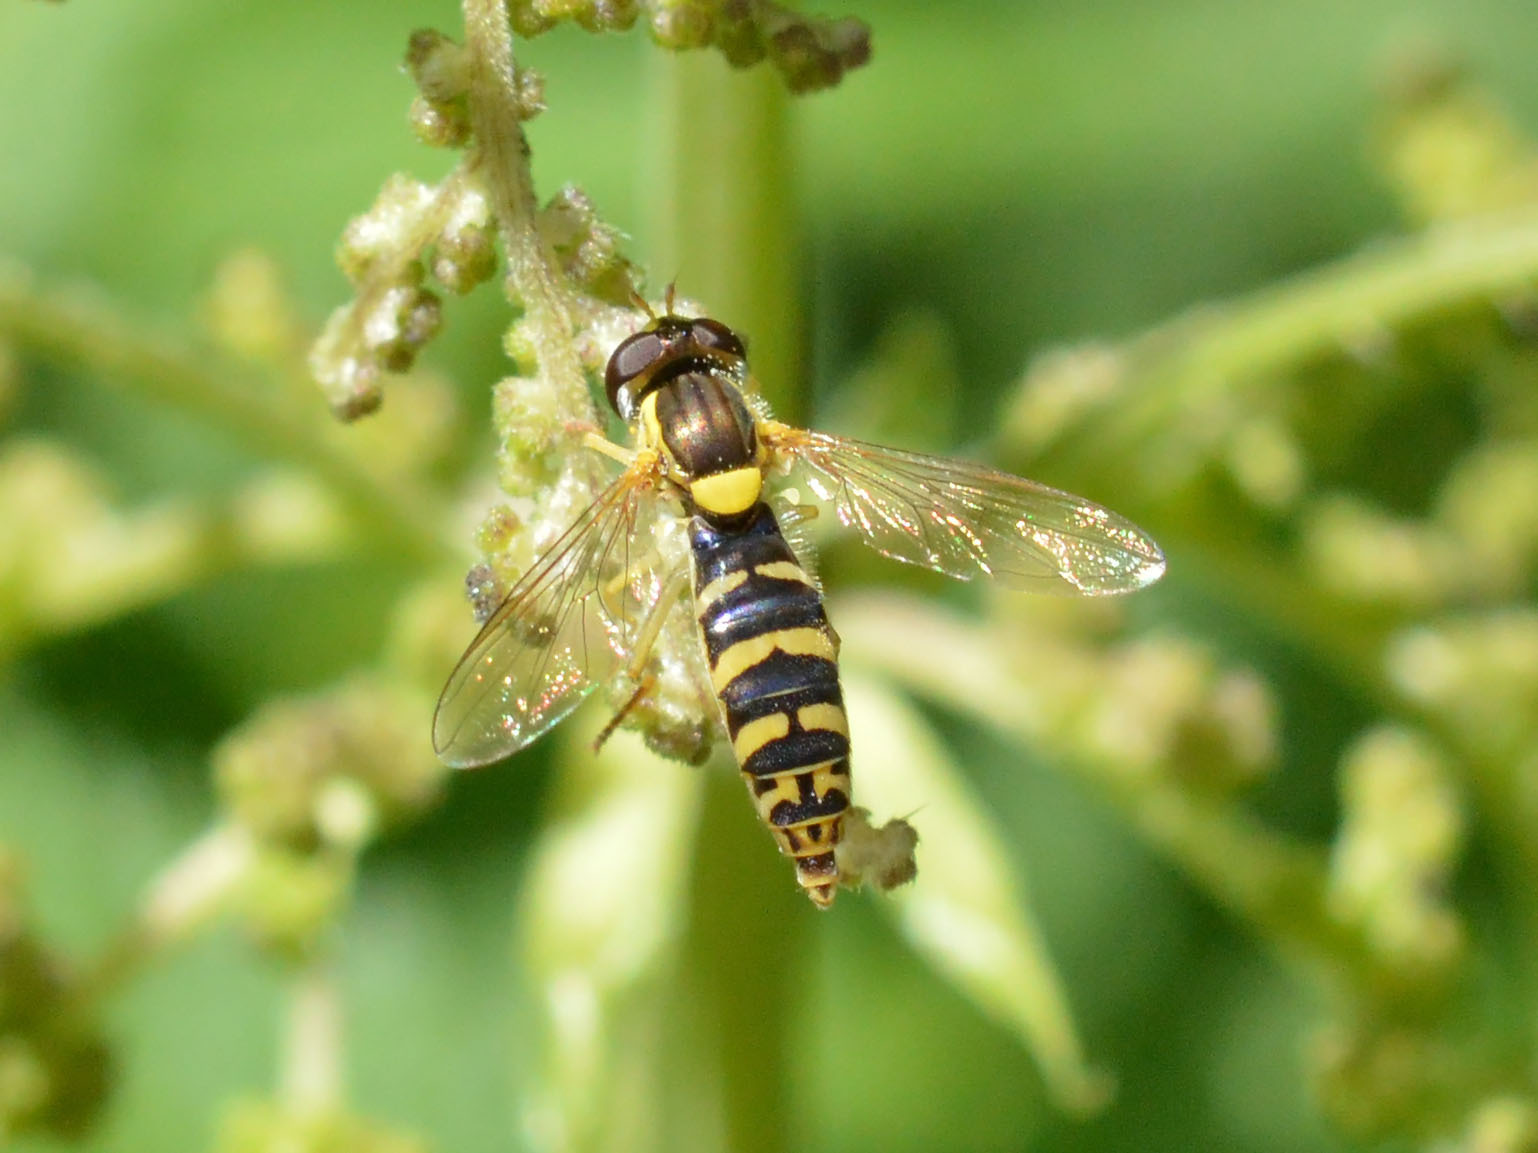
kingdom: Animalia
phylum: Arthropoda
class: Insecta
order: Diptera
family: Syrphidae
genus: Sphaerophoria
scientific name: Sphaerophoria
